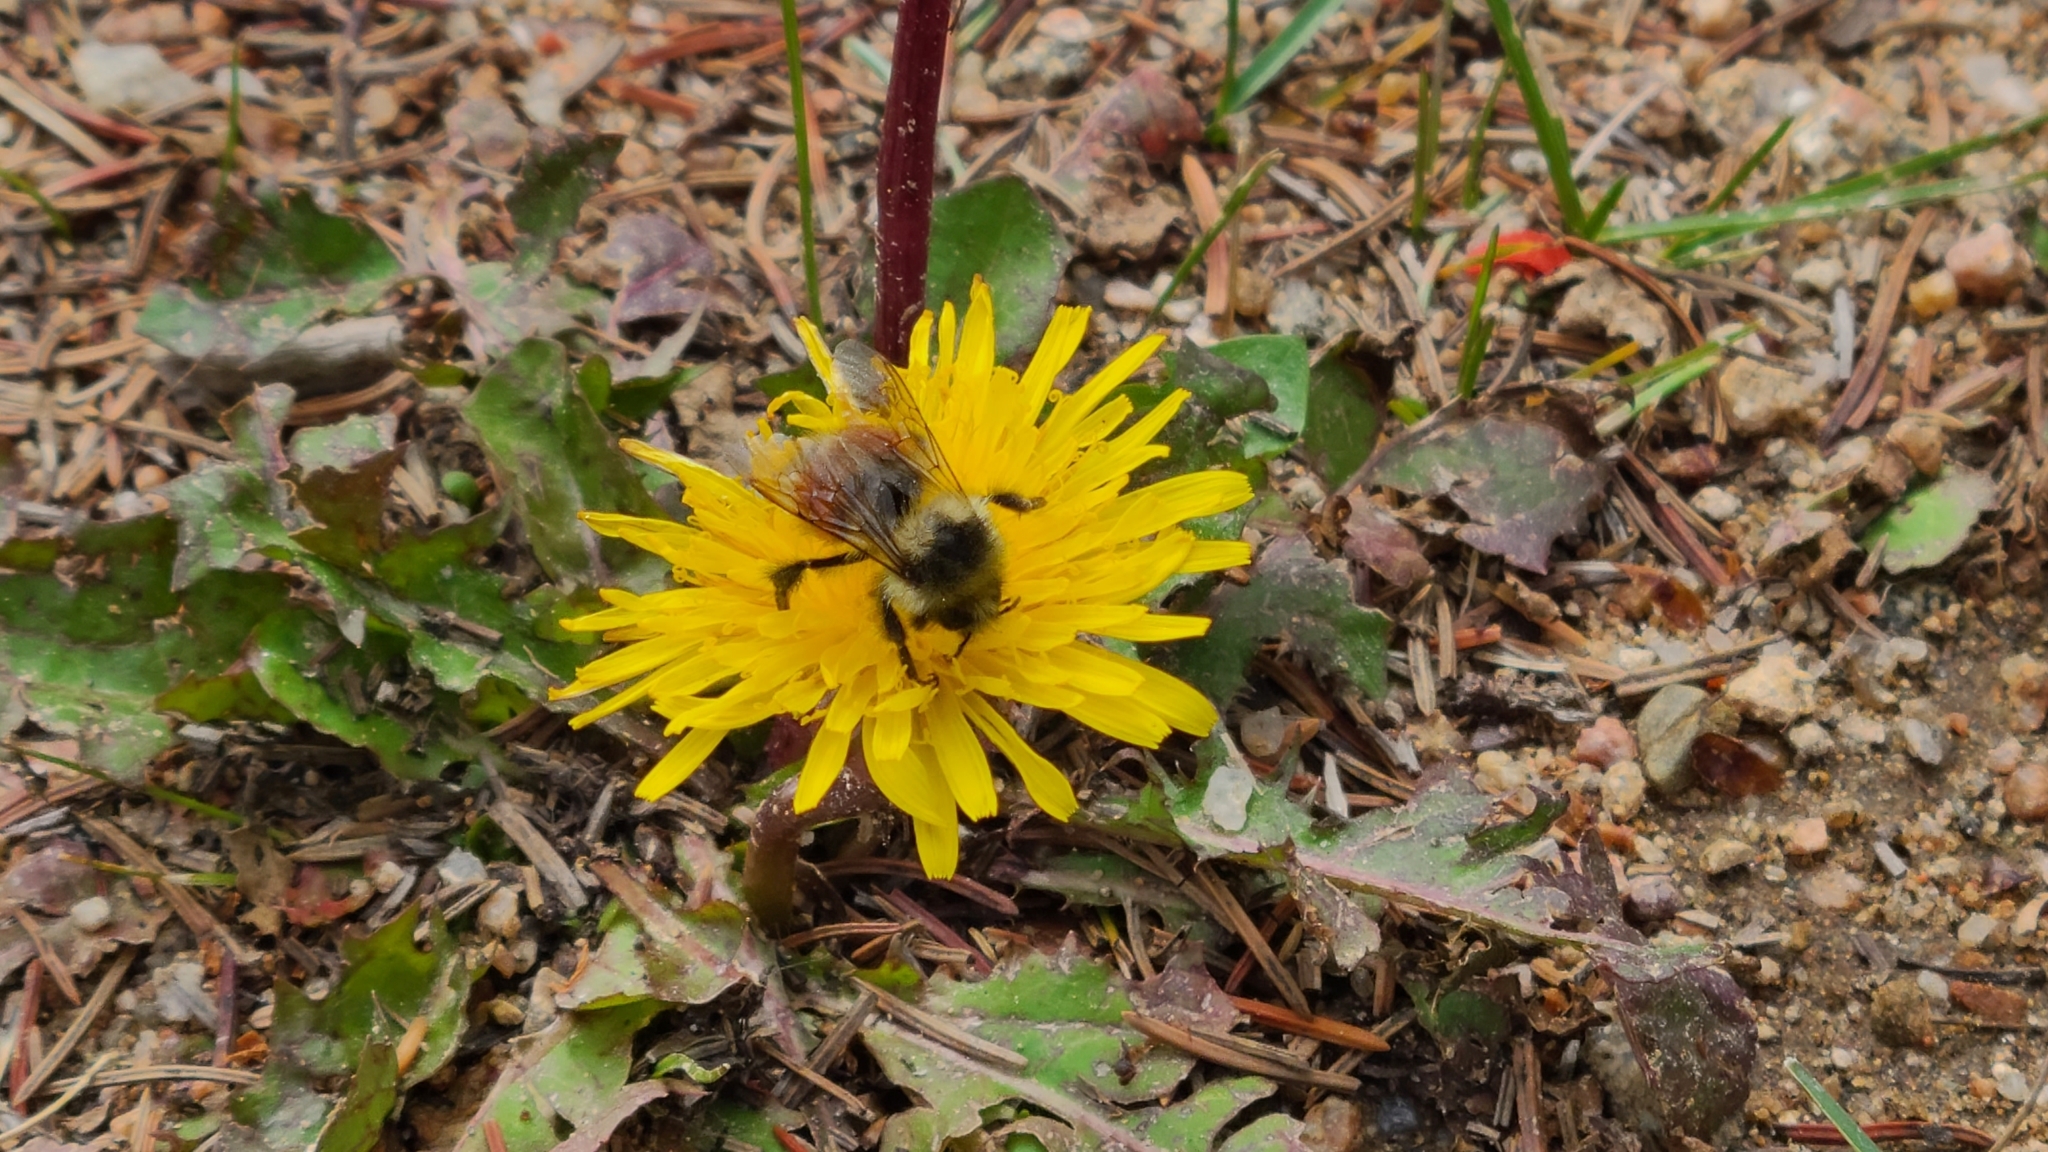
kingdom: Animalia
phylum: Arthropoda
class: Insecta
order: Hymenoptera
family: Apidae
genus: Bombus
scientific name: Bombus huntii
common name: Hunt bumble bee
